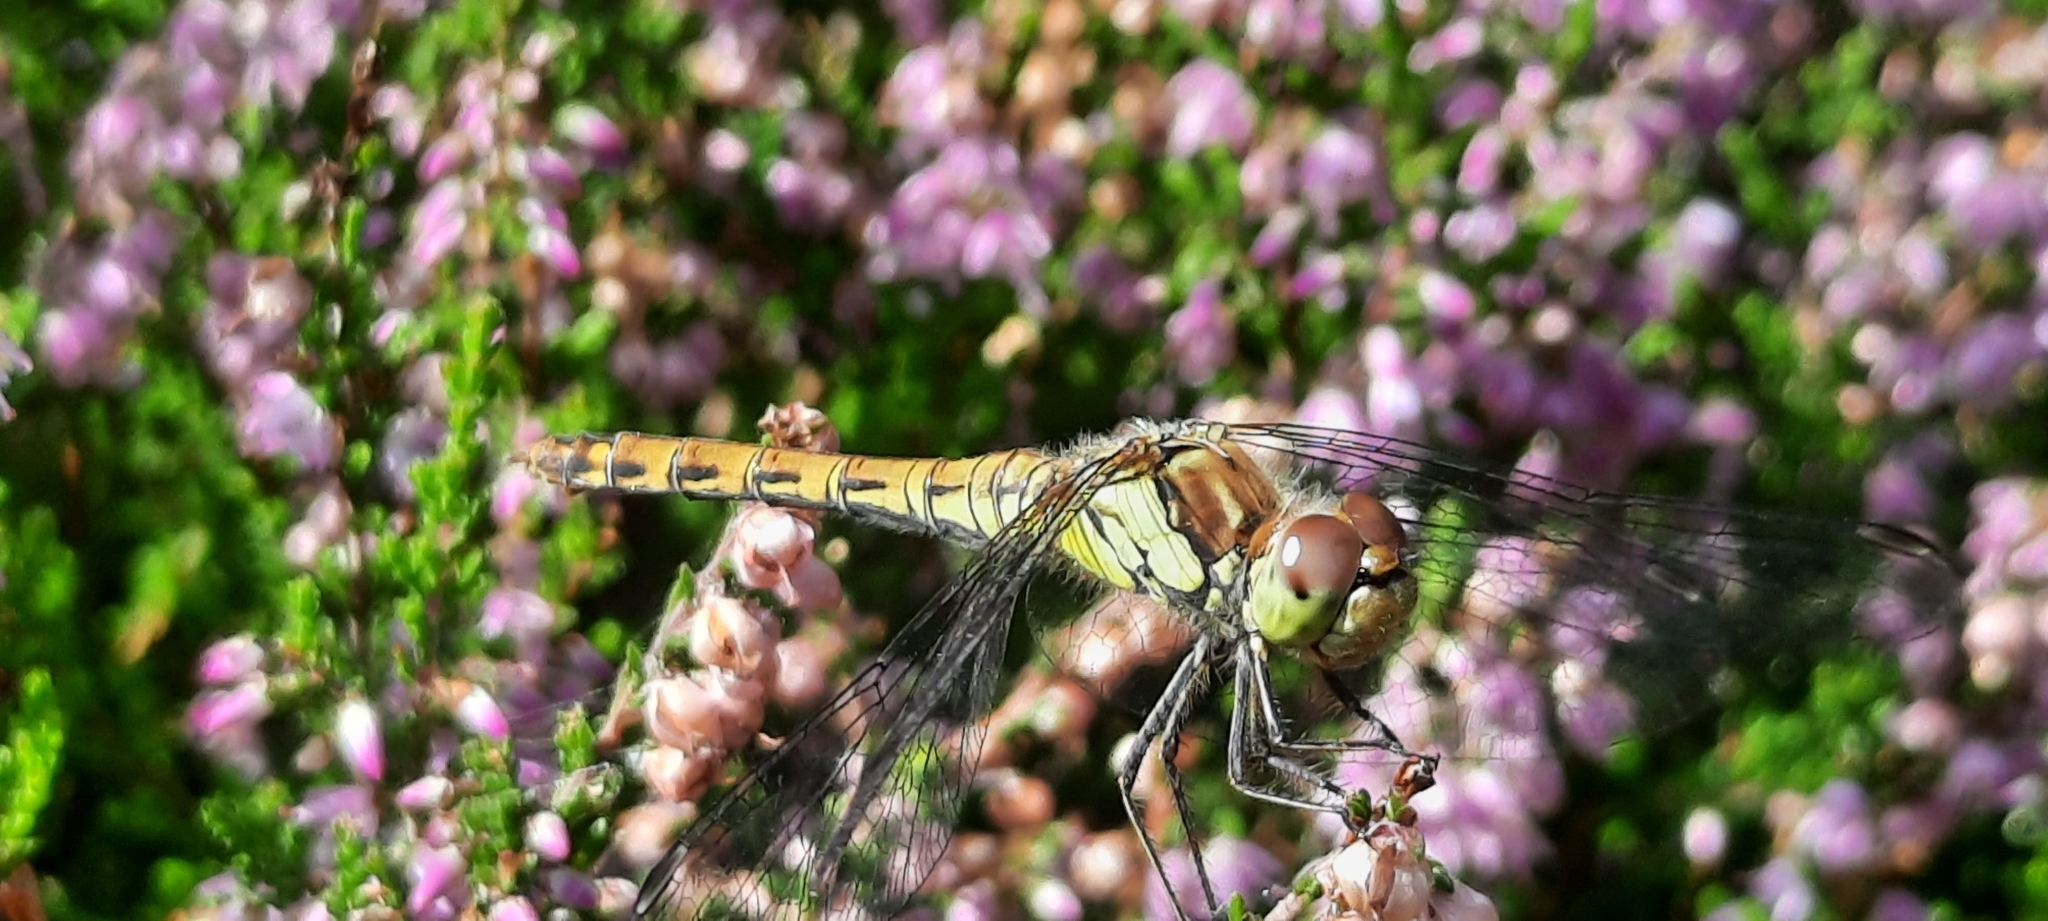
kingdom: Animalia
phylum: Arthropoda
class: Insecta
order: Odonata
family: Libellulidae
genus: Sympetrum
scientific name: Sympetrum striolatum
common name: Common darter
